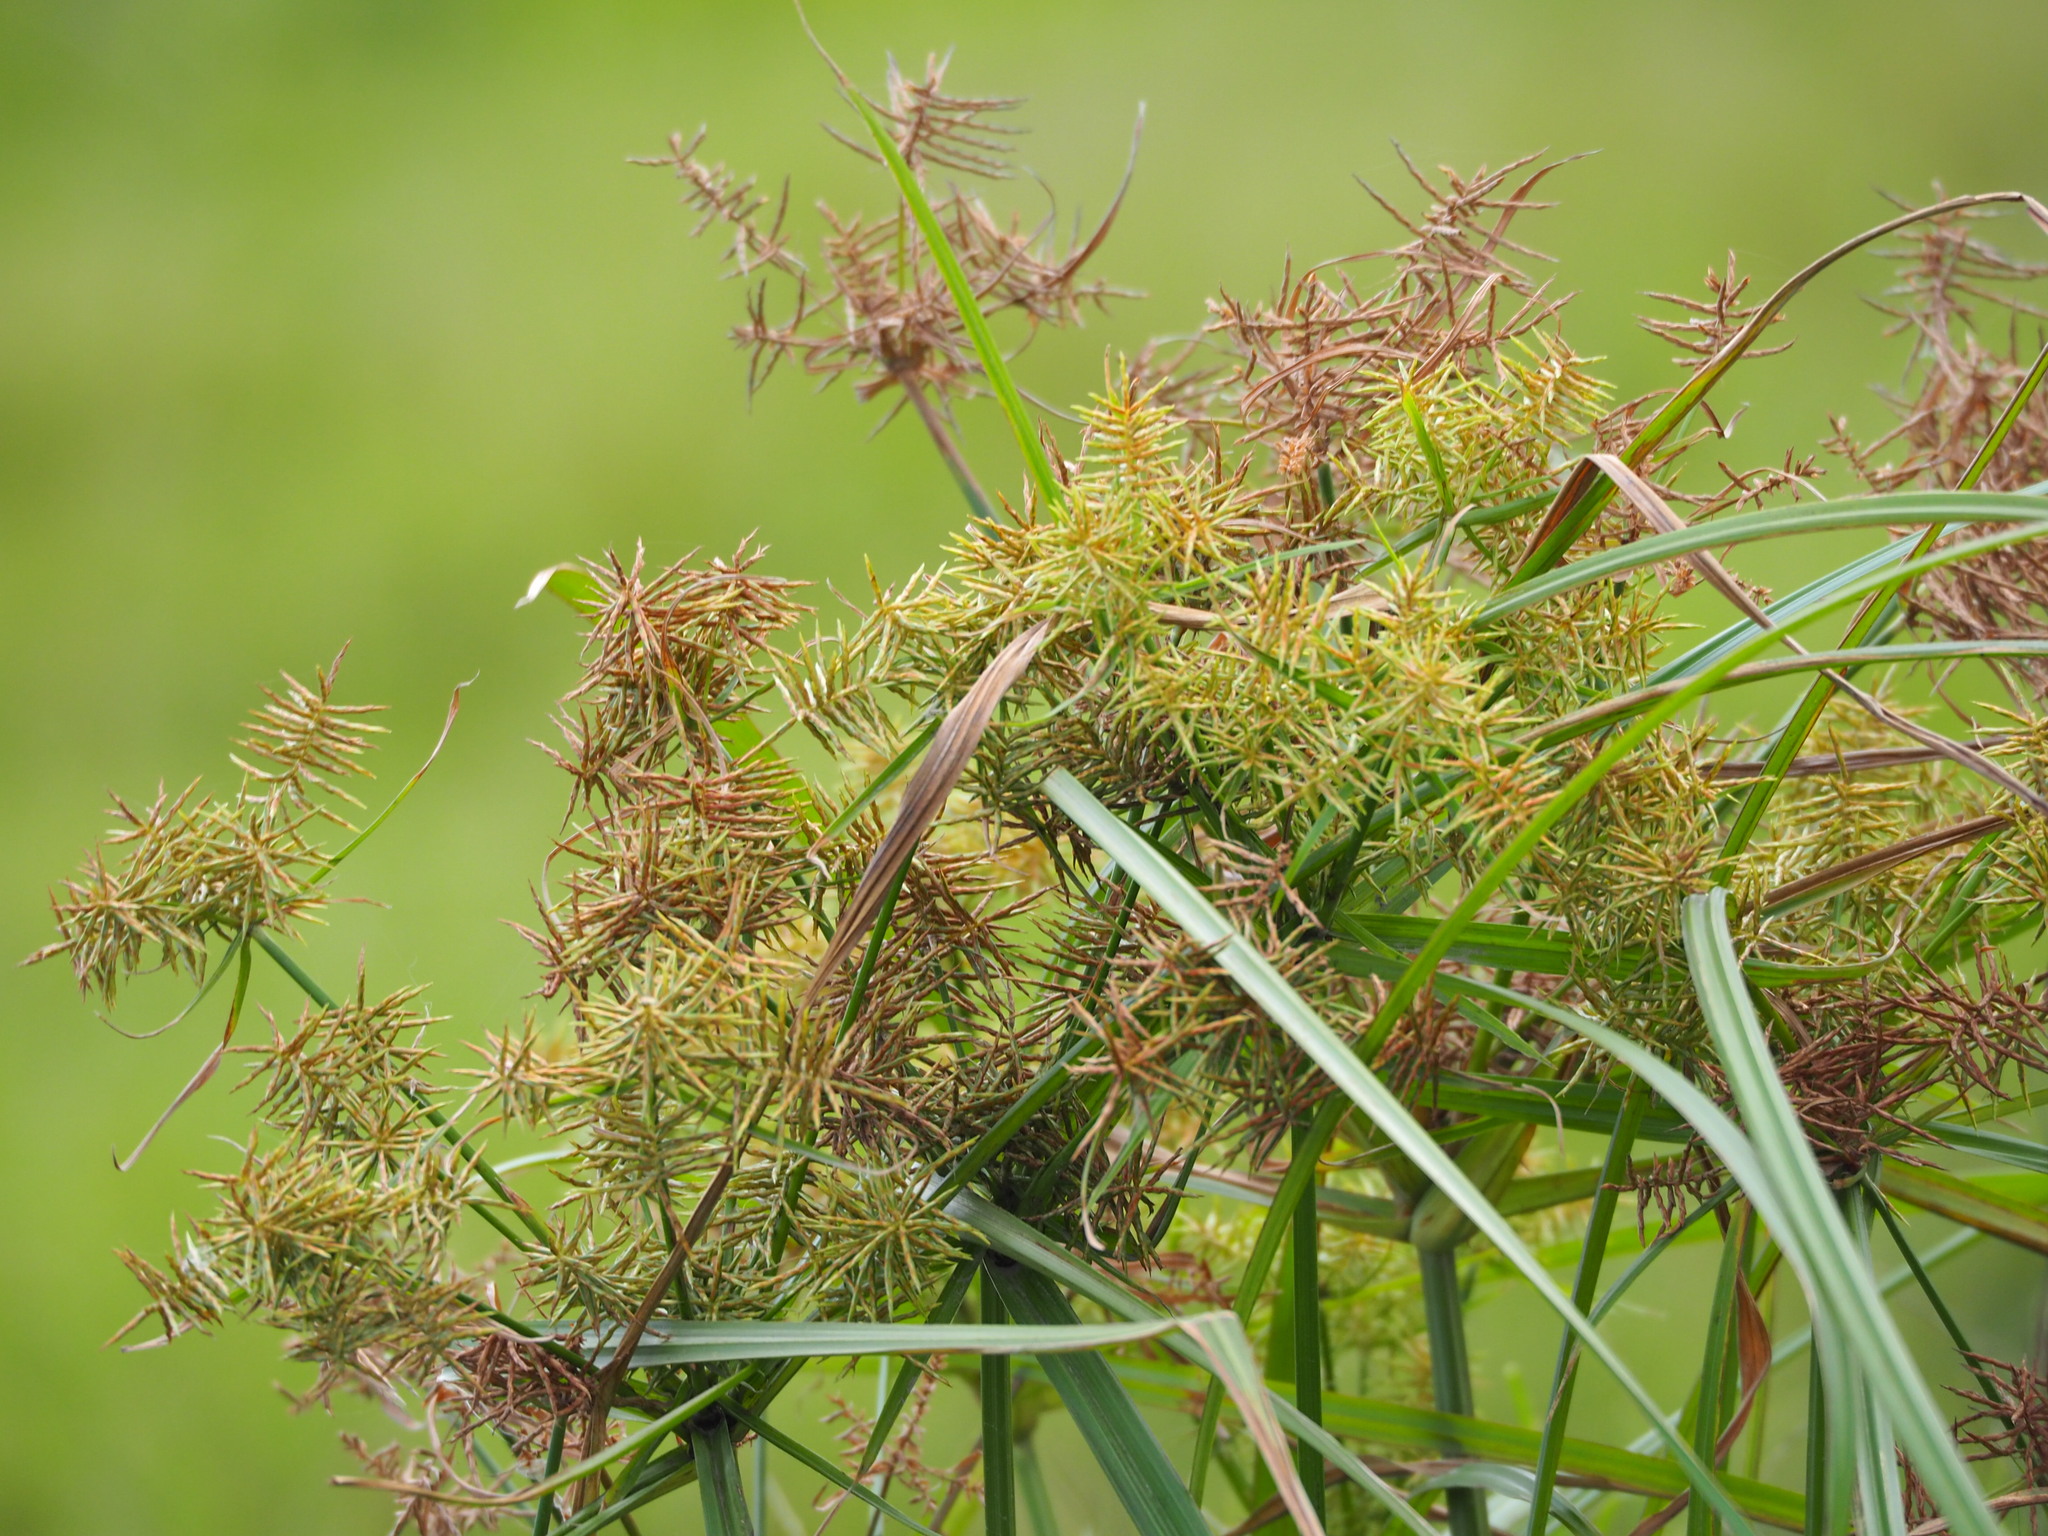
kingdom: Plantae
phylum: Tracheophyta
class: Liliopsida
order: Poales
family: Cyperaceae
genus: Cyperus
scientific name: Cyperus odoratus
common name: Fragrant flatsedge
